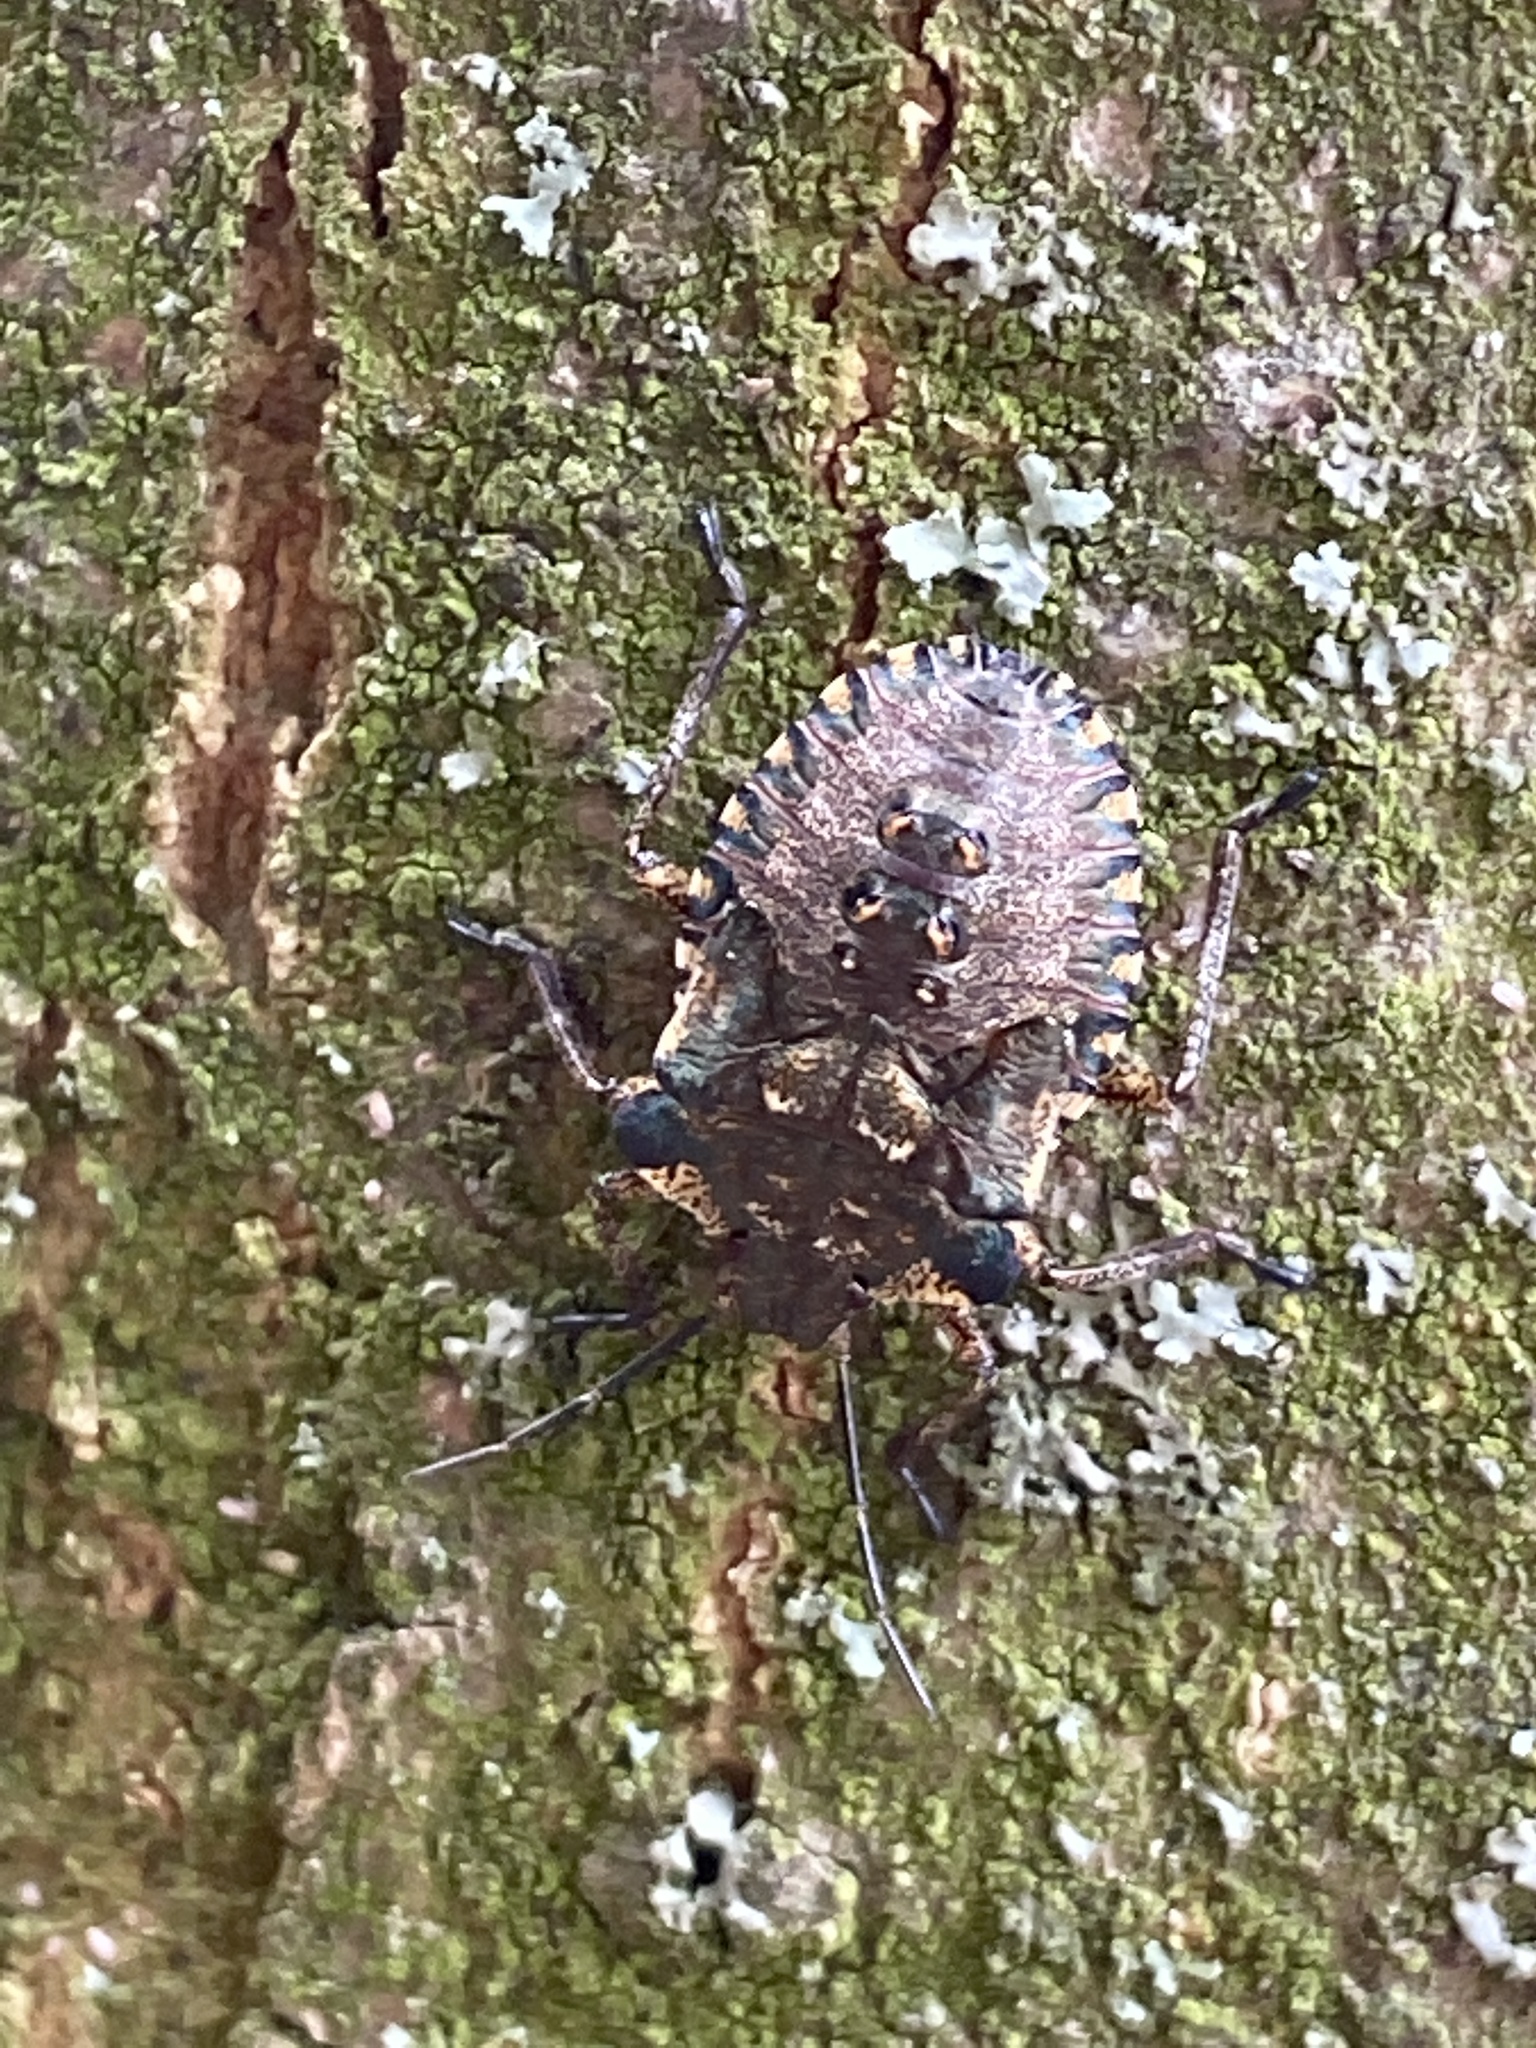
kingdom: Animalia
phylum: Arthropoda
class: Insecta
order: Hemiptera
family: Pentatomidae
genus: Pentatoma
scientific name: Pentatoma rufipes
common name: Forest bug
